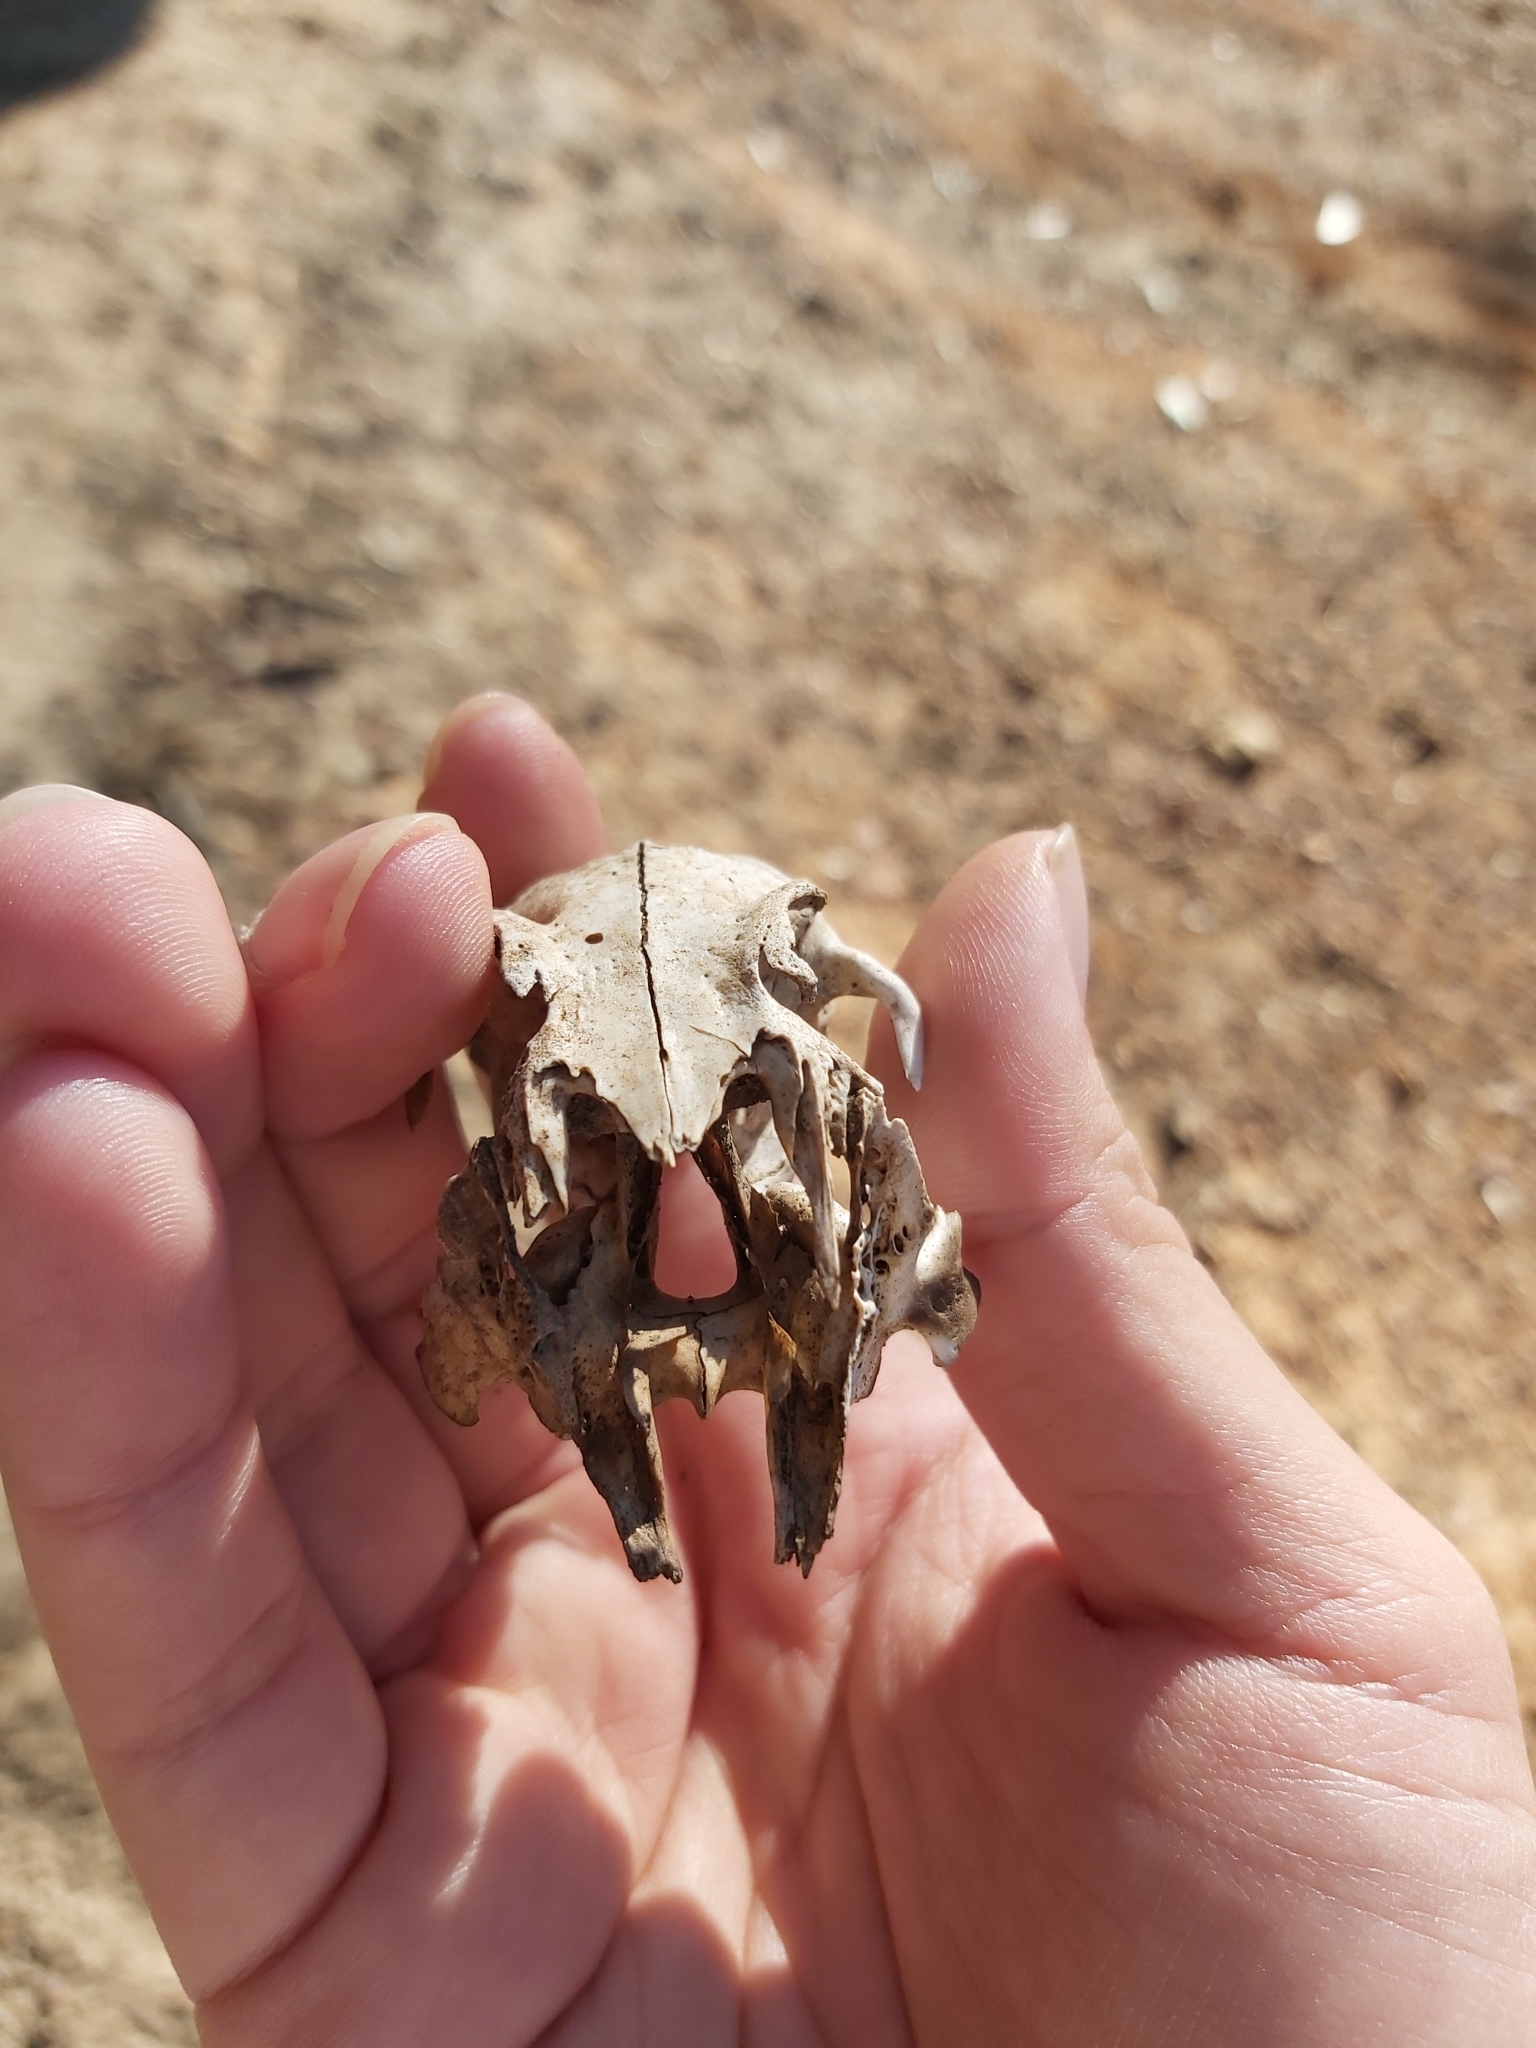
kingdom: Animalia
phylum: Chordata
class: Mammalia
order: Lagomorpha
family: Leporidae
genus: Oryctolagus
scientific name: Oryctolagus cuniculus
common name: European rabbit
